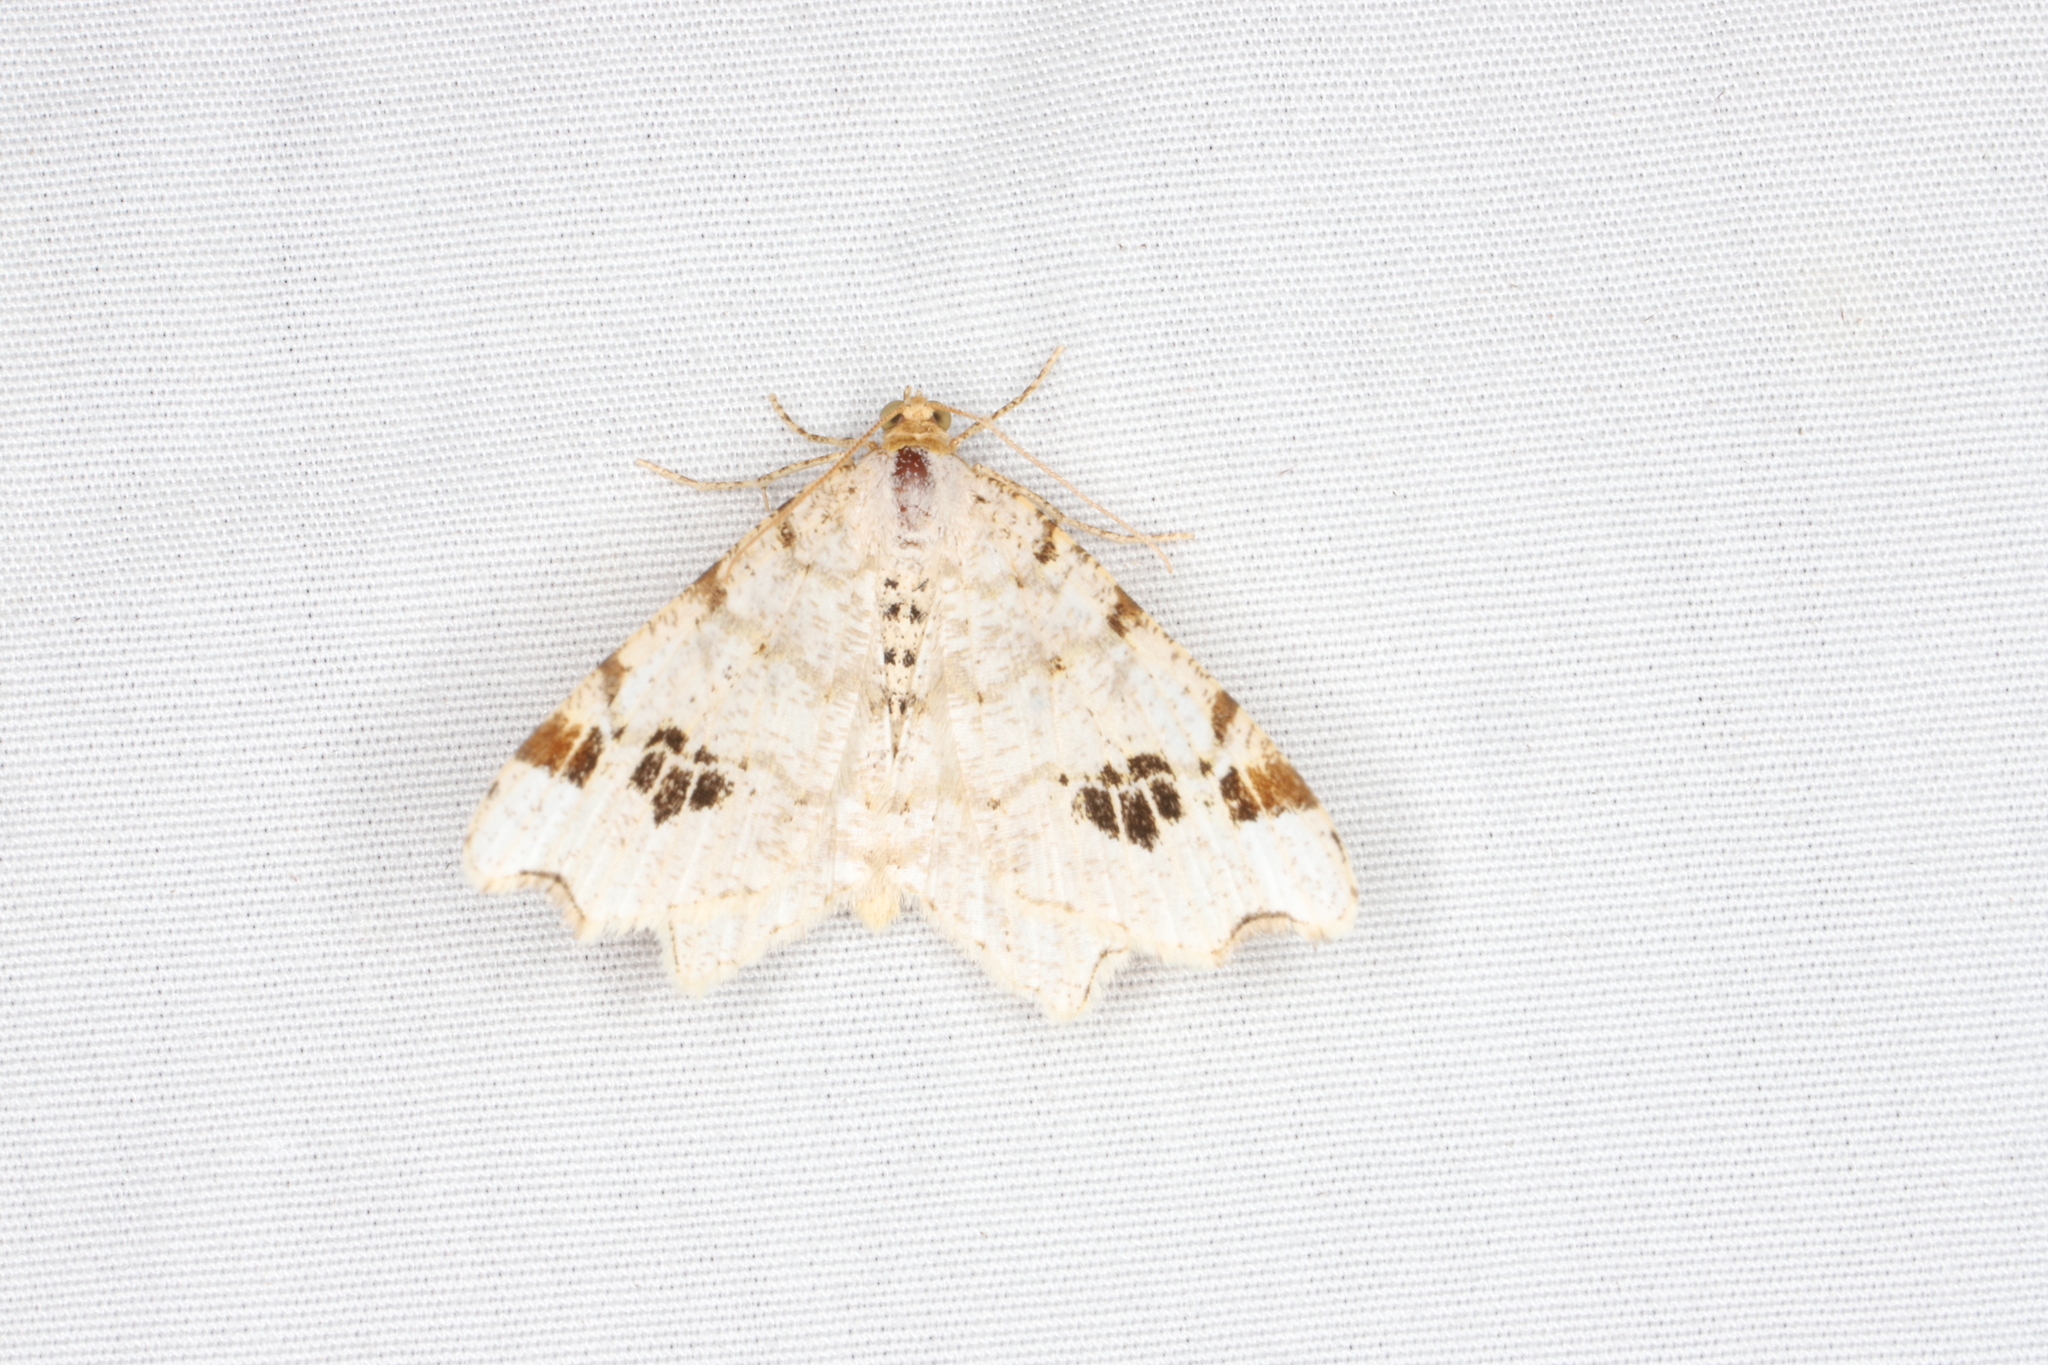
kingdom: Animalia
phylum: Arthropoda
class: Insecta
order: Lepidoptera
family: Geometridae
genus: Macaria
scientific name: Macaria ulsterata
